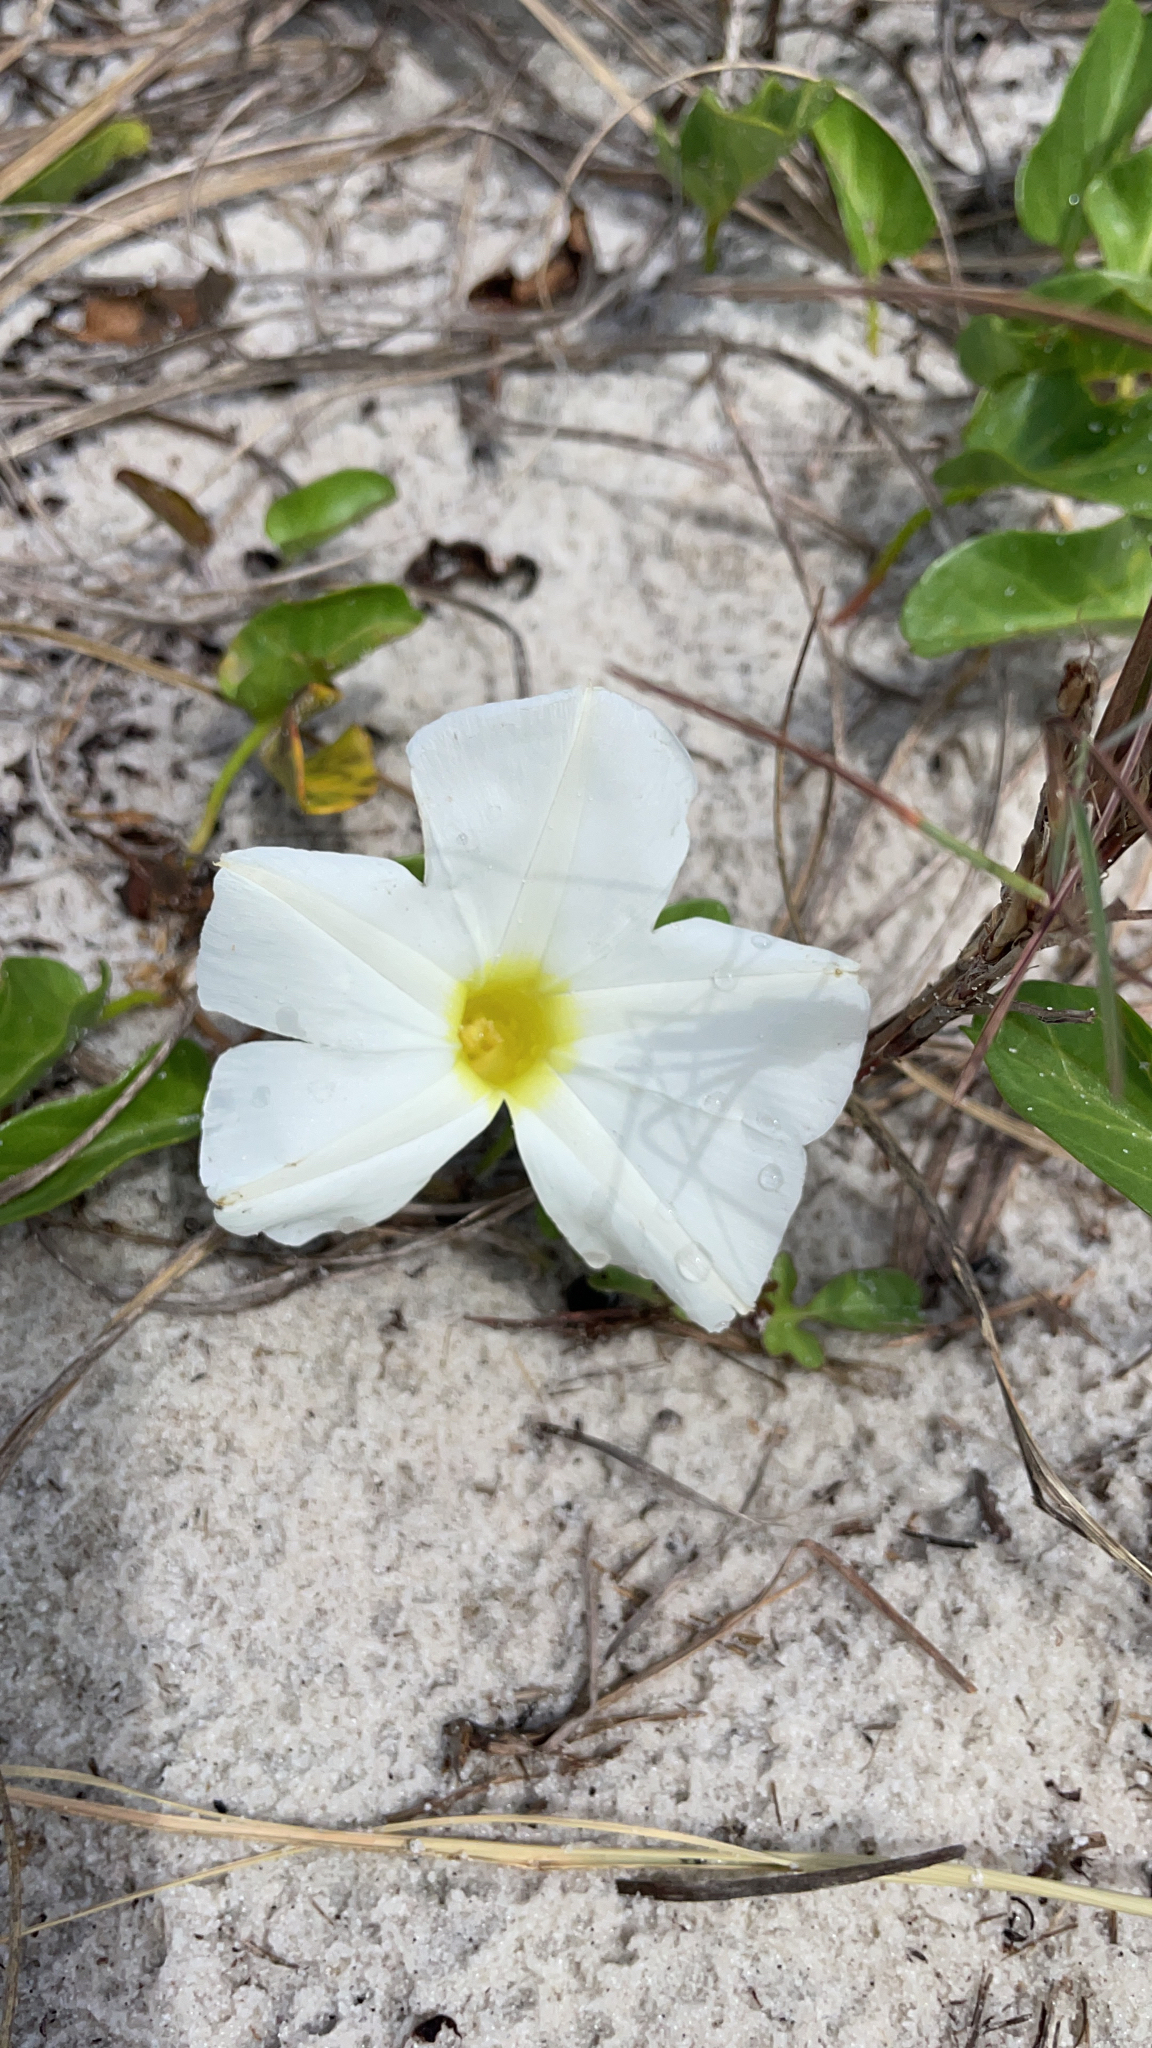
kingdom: Plantae
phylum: Tracheophyta
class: Magnoliopsida
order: Solanales
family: Convolvulaceae
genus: Ipomoea
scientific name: Ipomoea imperati
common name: Fiddle-leaf morning-glory
